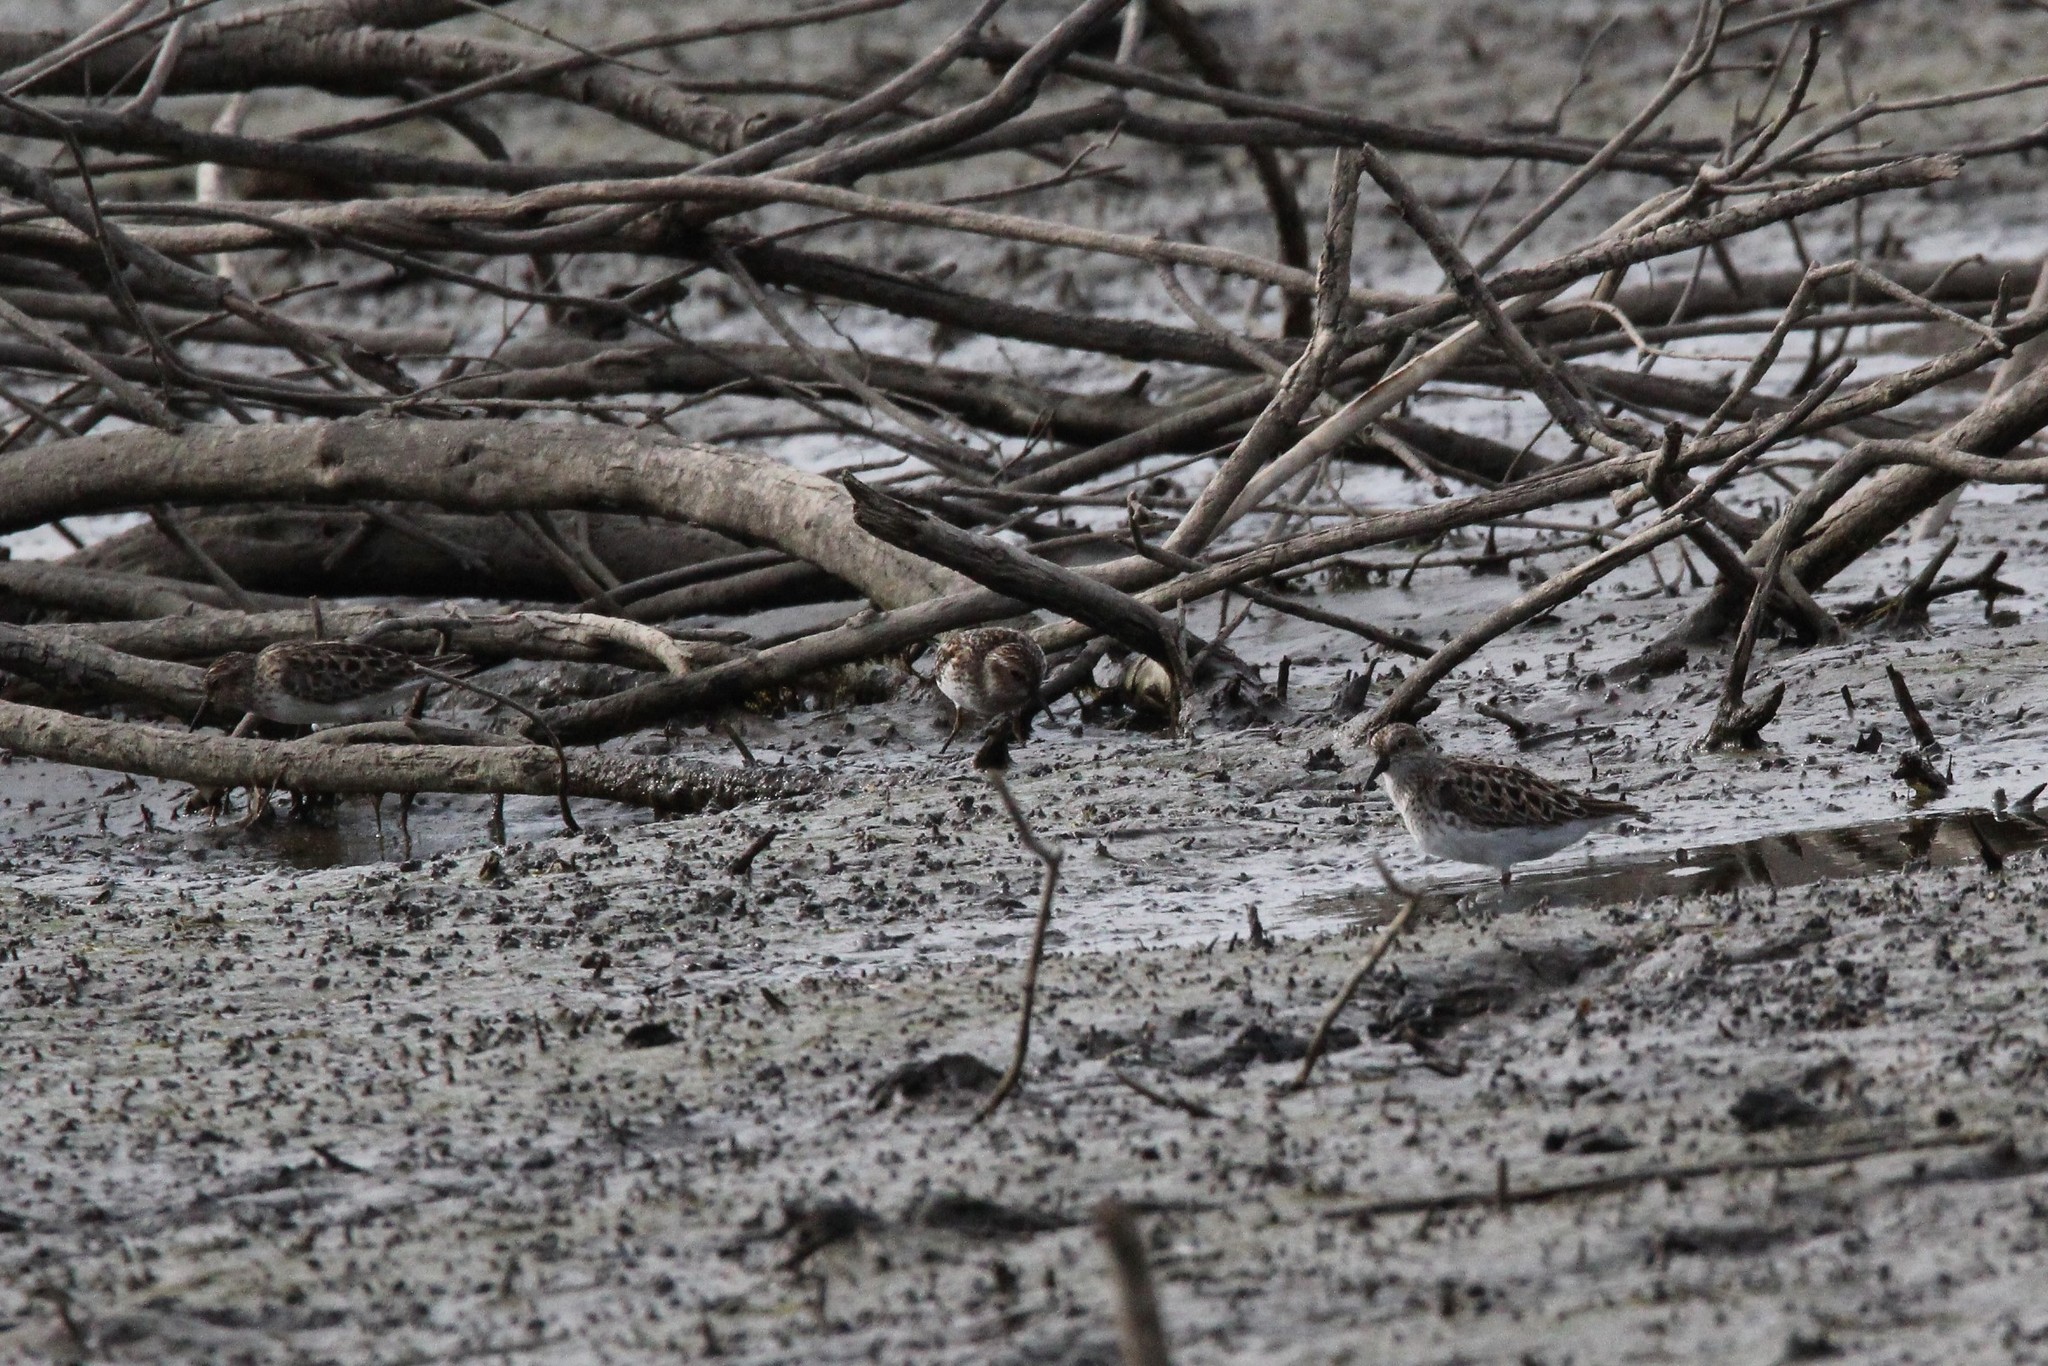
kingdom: Animalia
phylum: Chordata
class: Aves
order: Charadriiformes
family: Scolopacidae
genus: Calidris
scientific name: Calidris minutilla
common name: Least sandpiper
